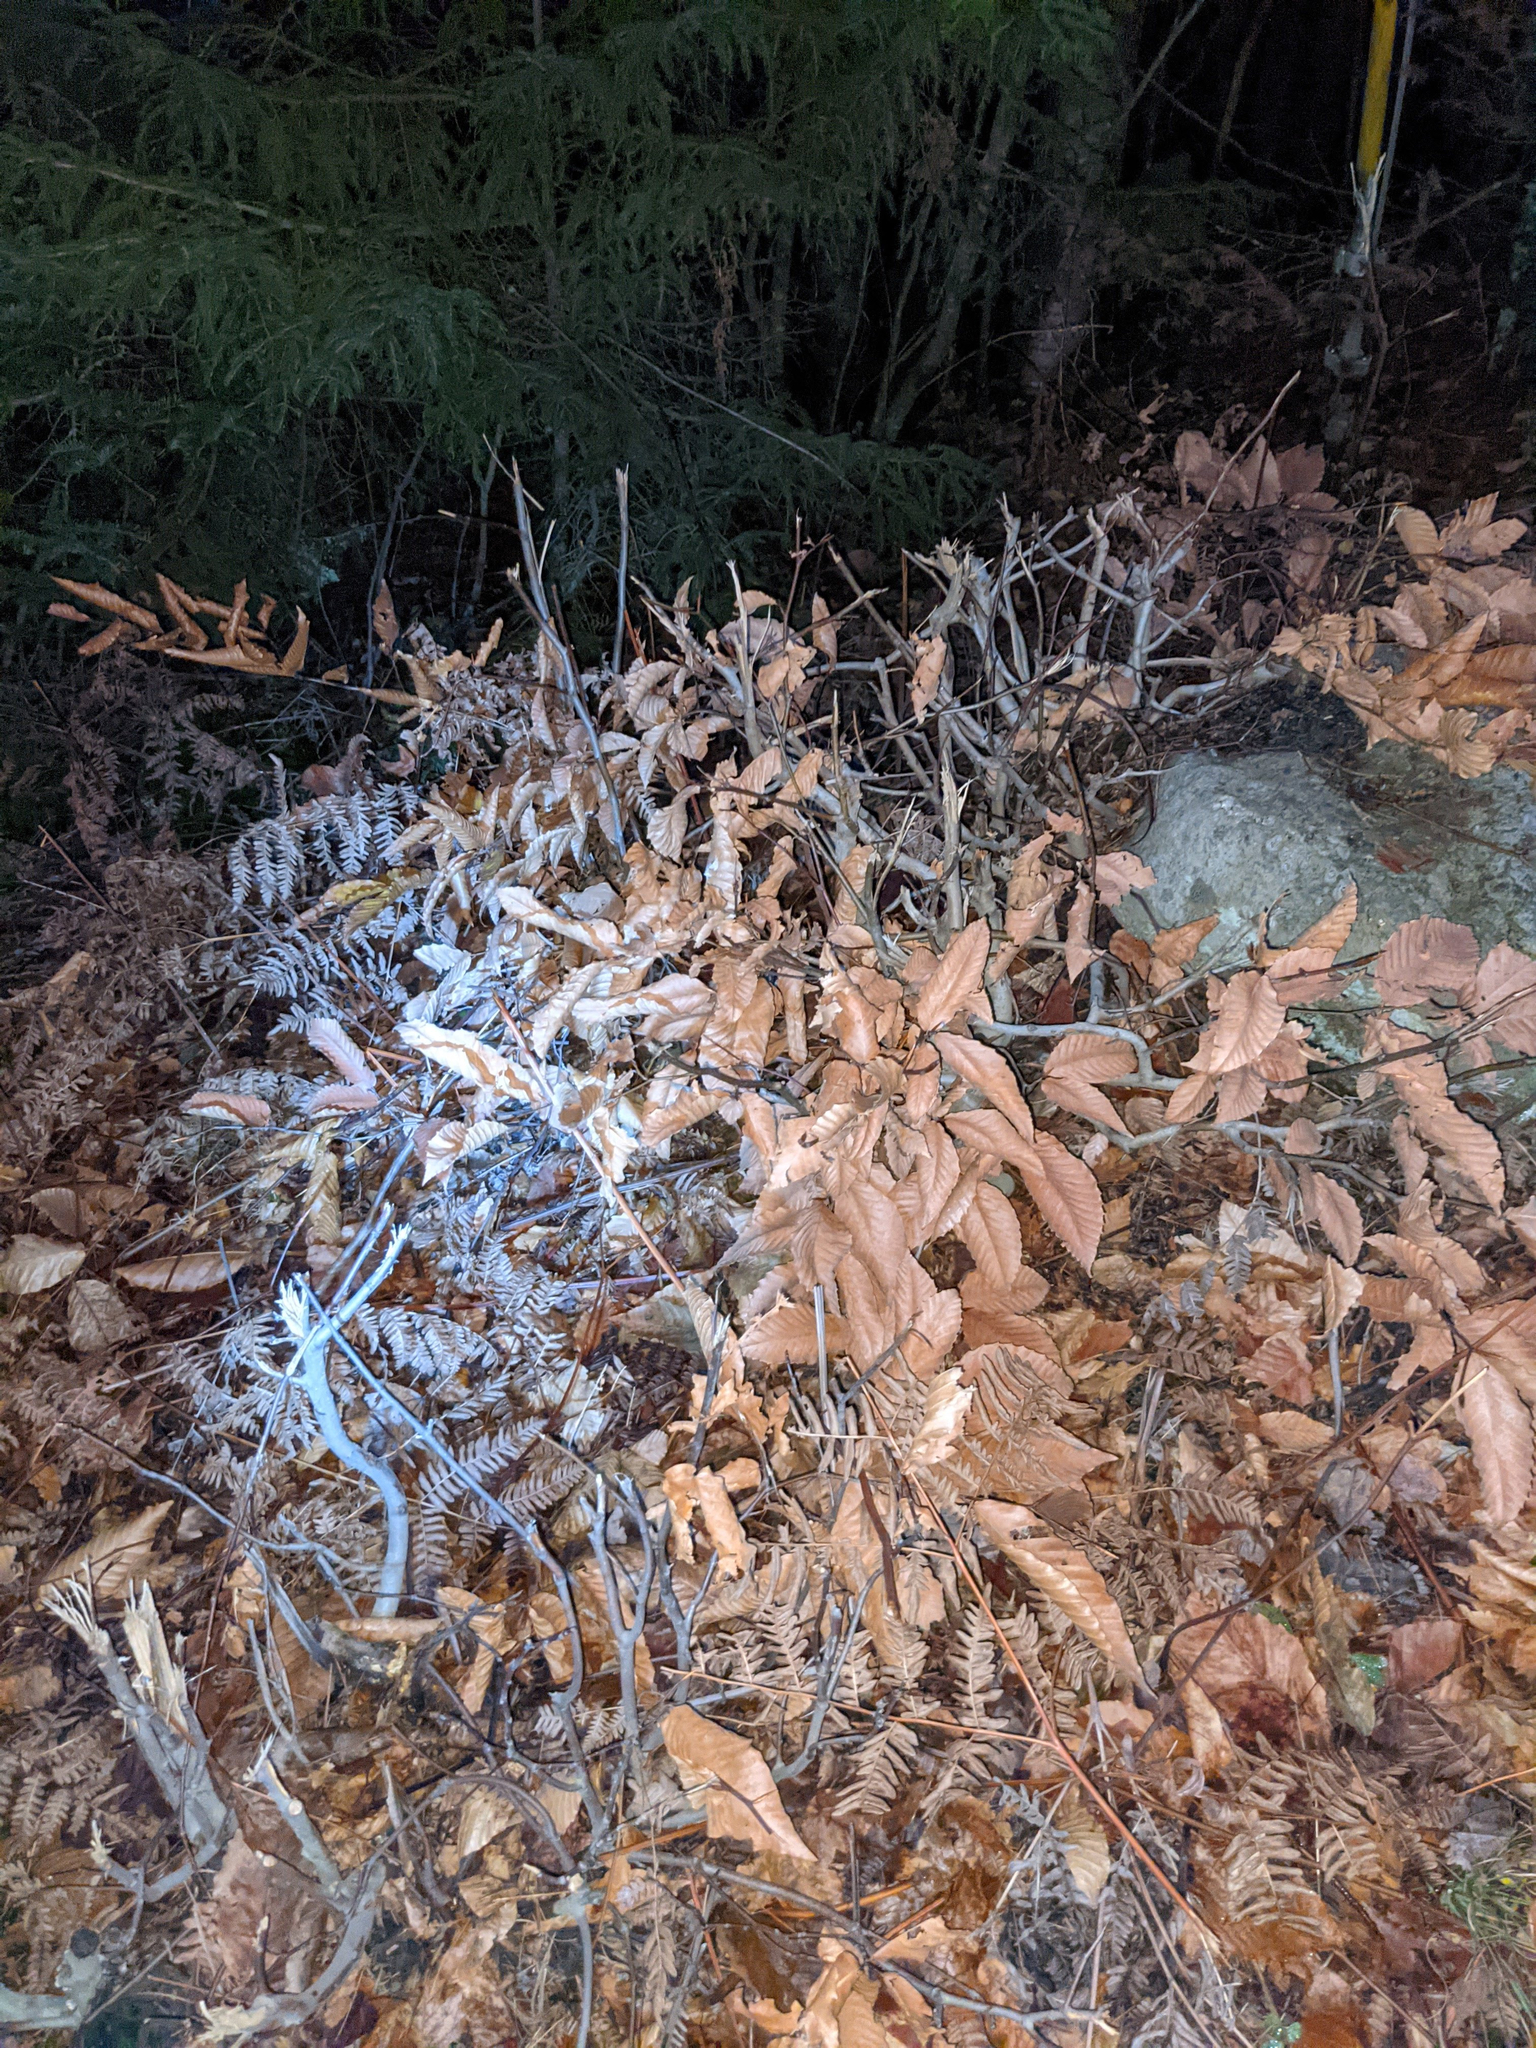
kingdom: Plantae
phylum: Tracheophyta
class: Magnoliopsida
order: Fagales
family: Fagaceae
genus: Fagus
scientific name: Fagus grandifolia
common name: American beech
